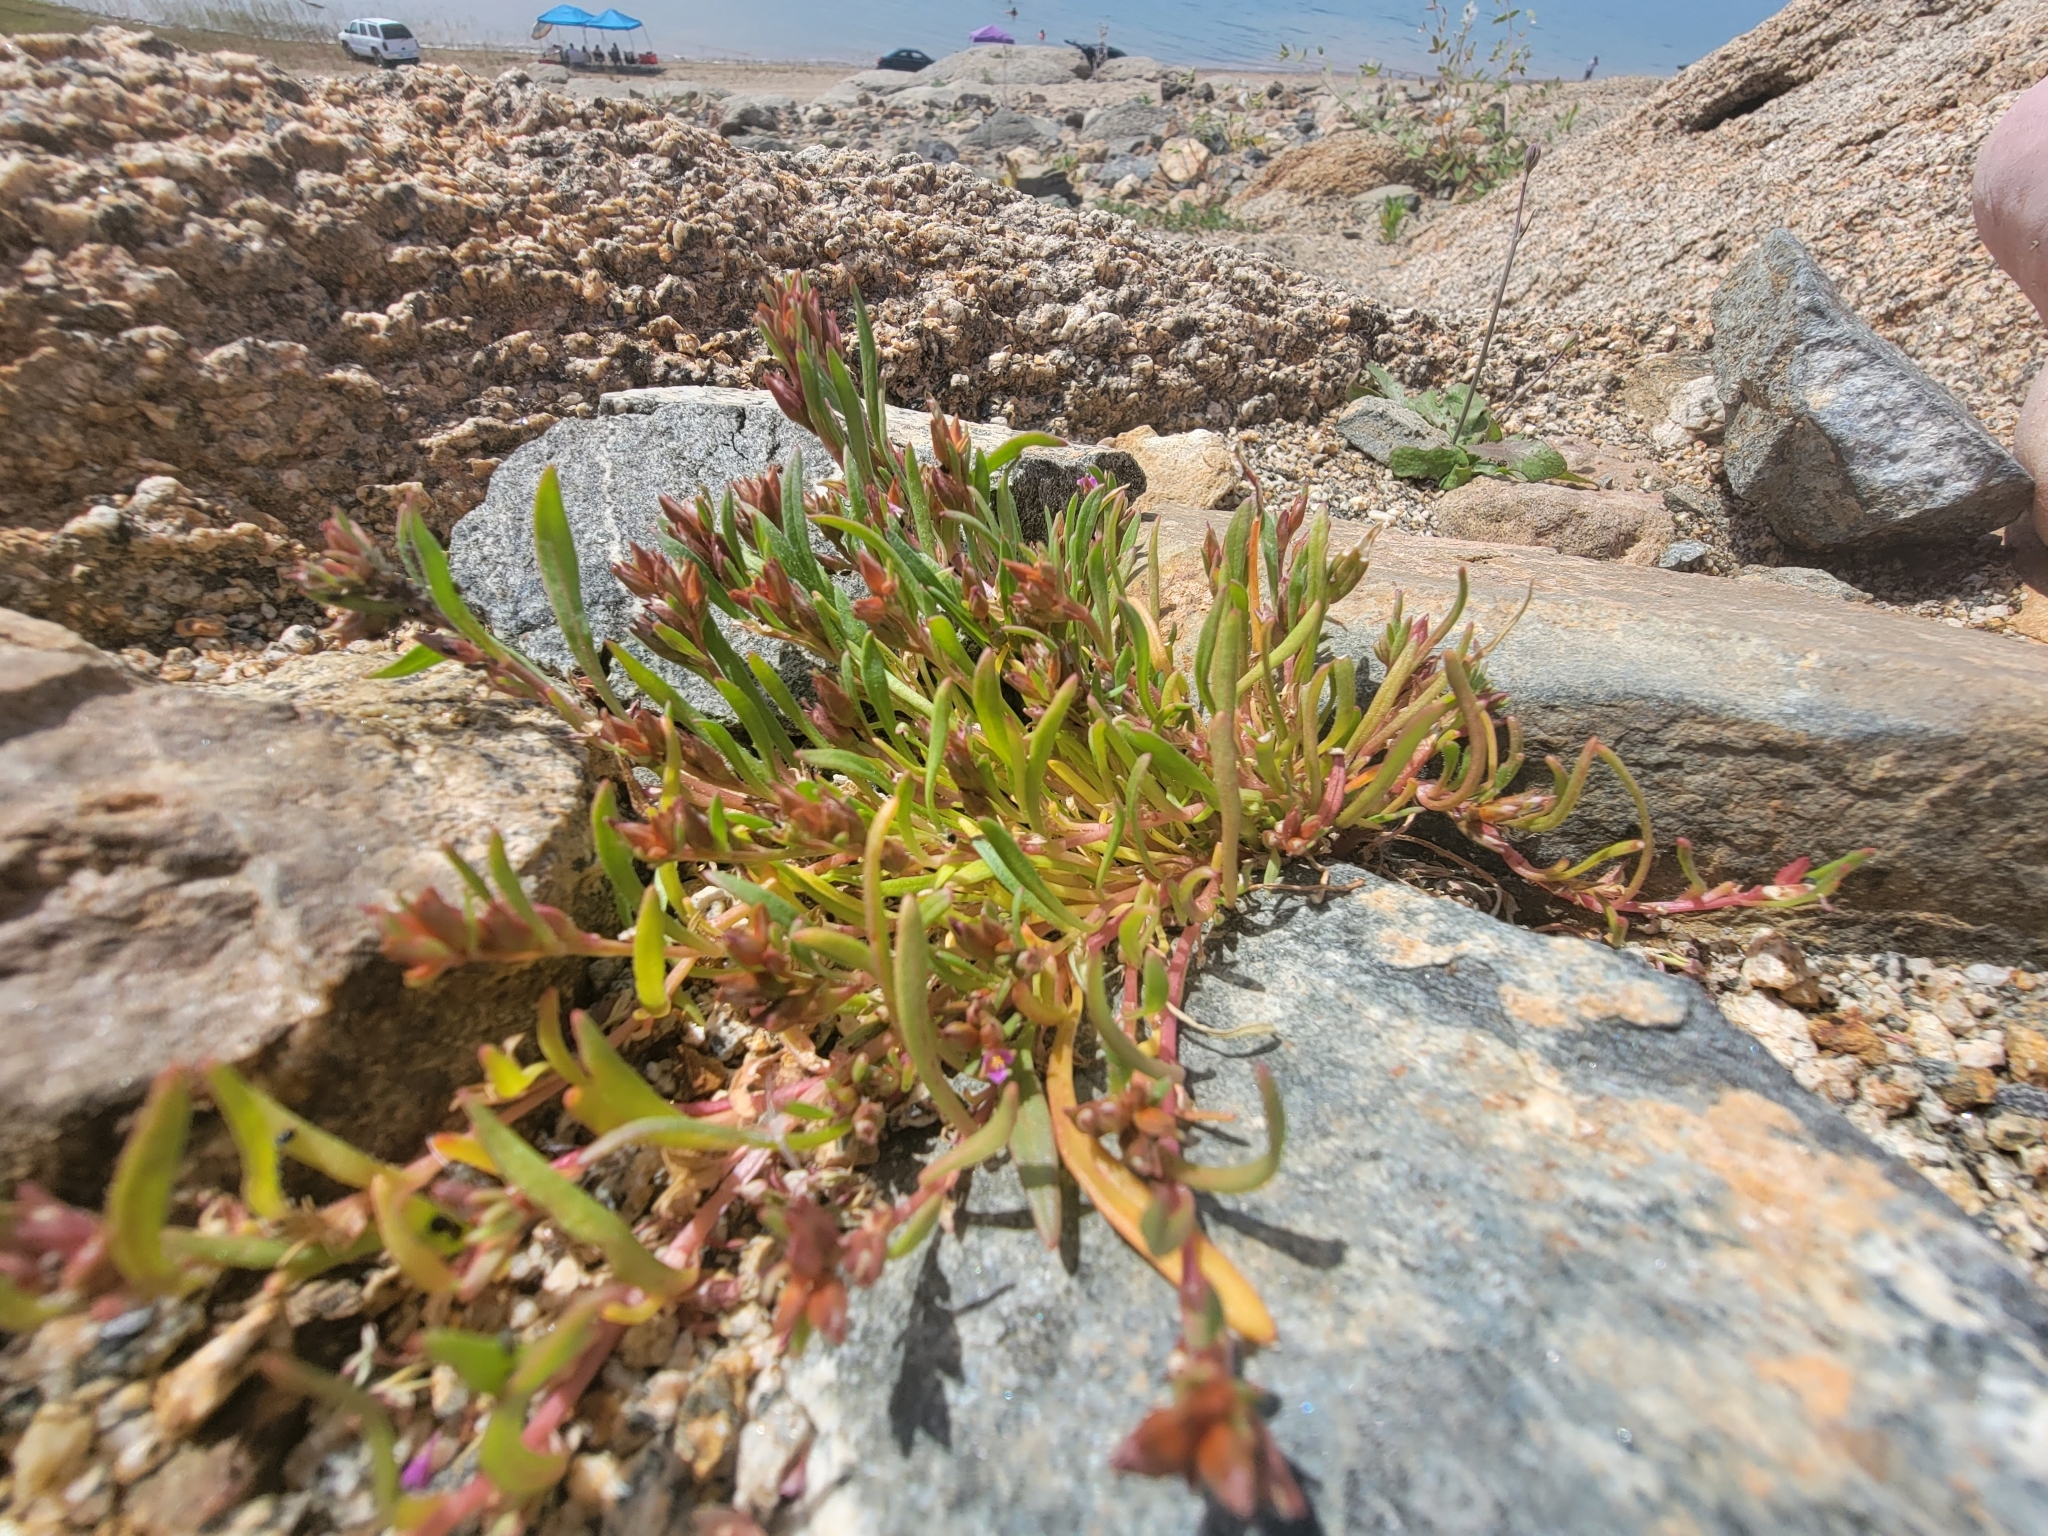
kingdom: Plantae
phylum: Tracheophyta
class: Magnoliopsida
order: Caryophyllales
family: Montiaceae
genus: Calandrinia
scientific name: Calandrinia menziesii
